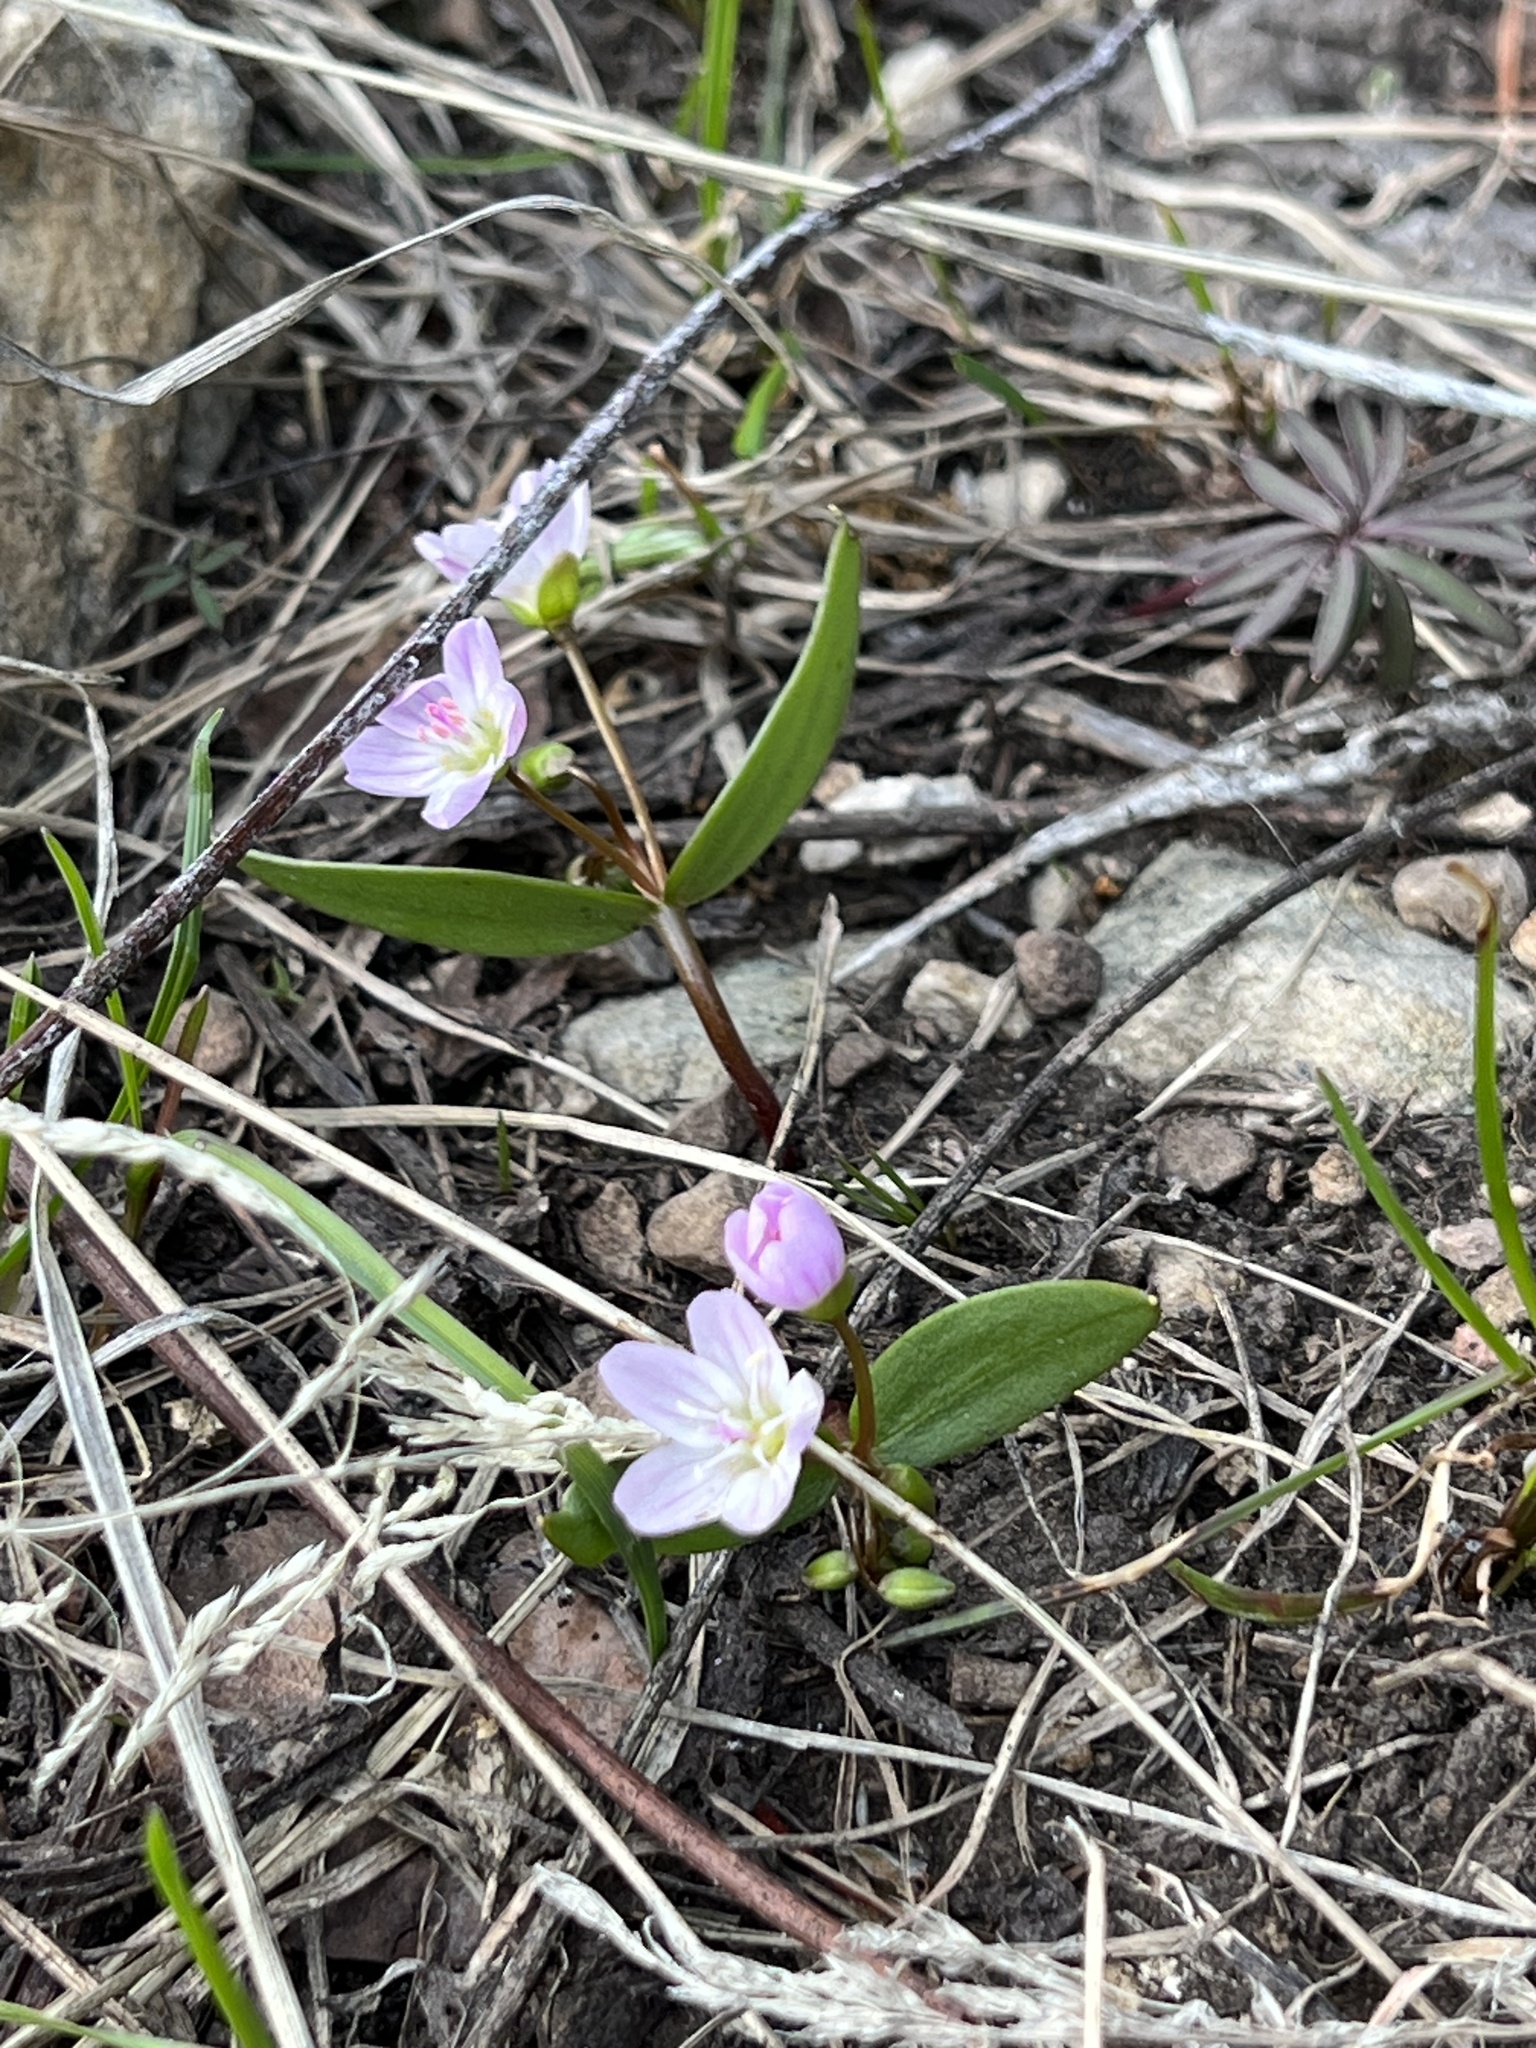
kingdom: Plantae
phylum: Tracheophyta
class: Magnoliopsida
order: Caryophyllales
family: Montiaceae
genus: Claytonia
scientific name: Claytonia lanceolata
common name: Western spring-beauty
